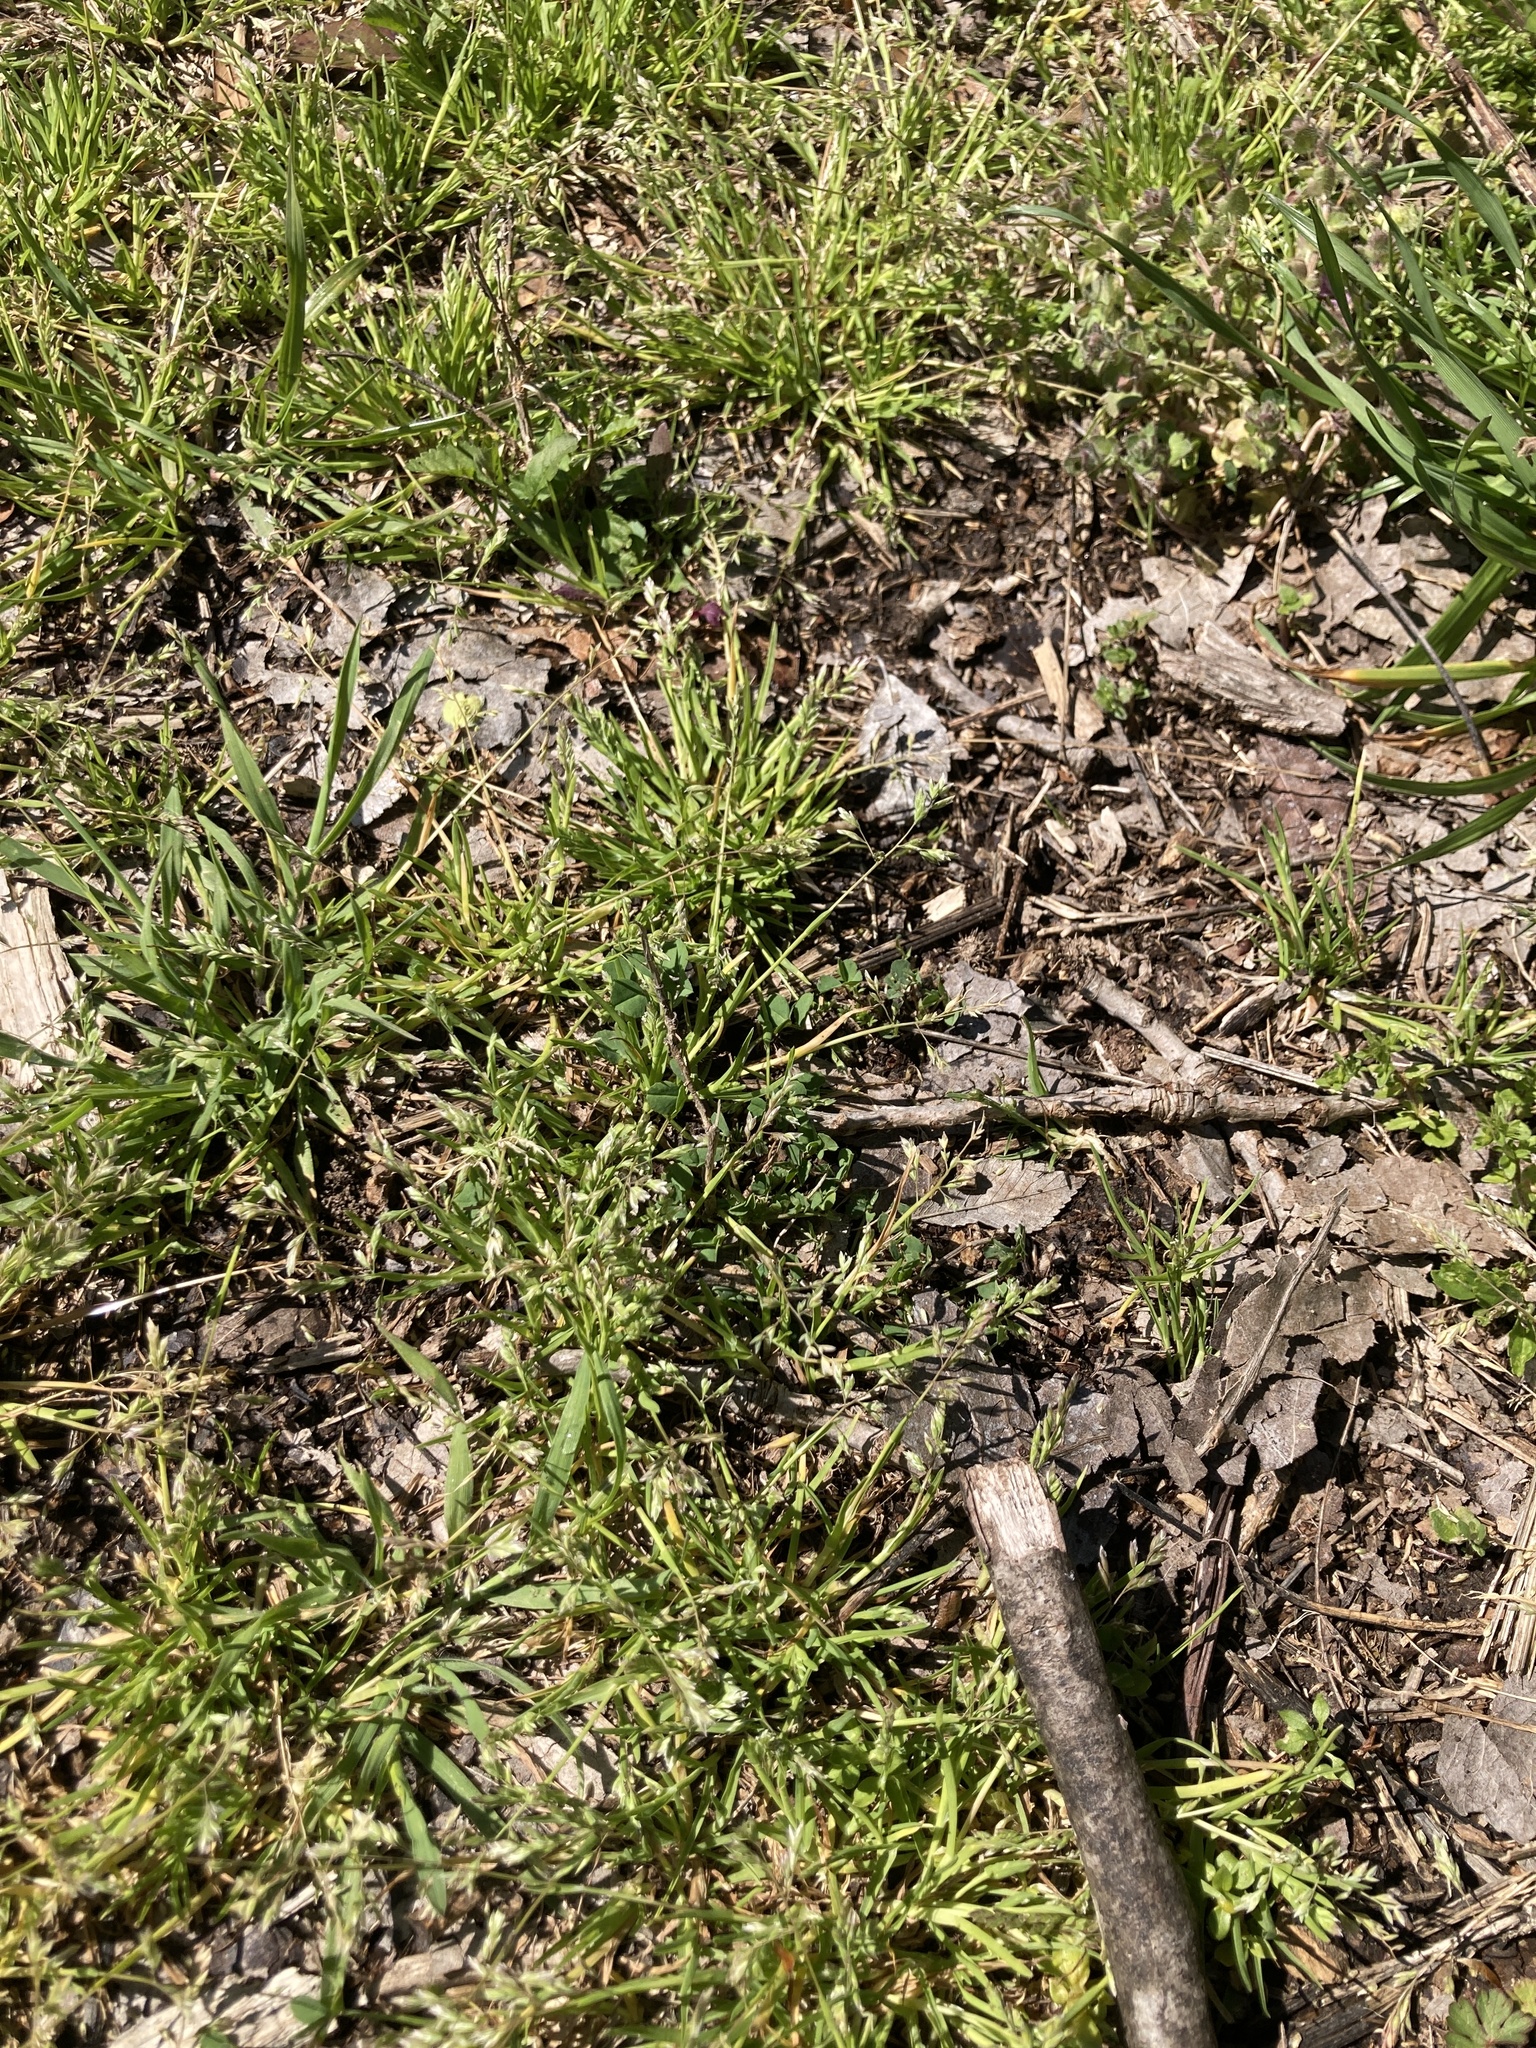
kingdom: Plantae
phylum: Tracheophyta
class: Liliopsida
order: Poales
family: Poaceae
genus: Poa
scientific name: Poa annua
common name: Annual bluegrass
